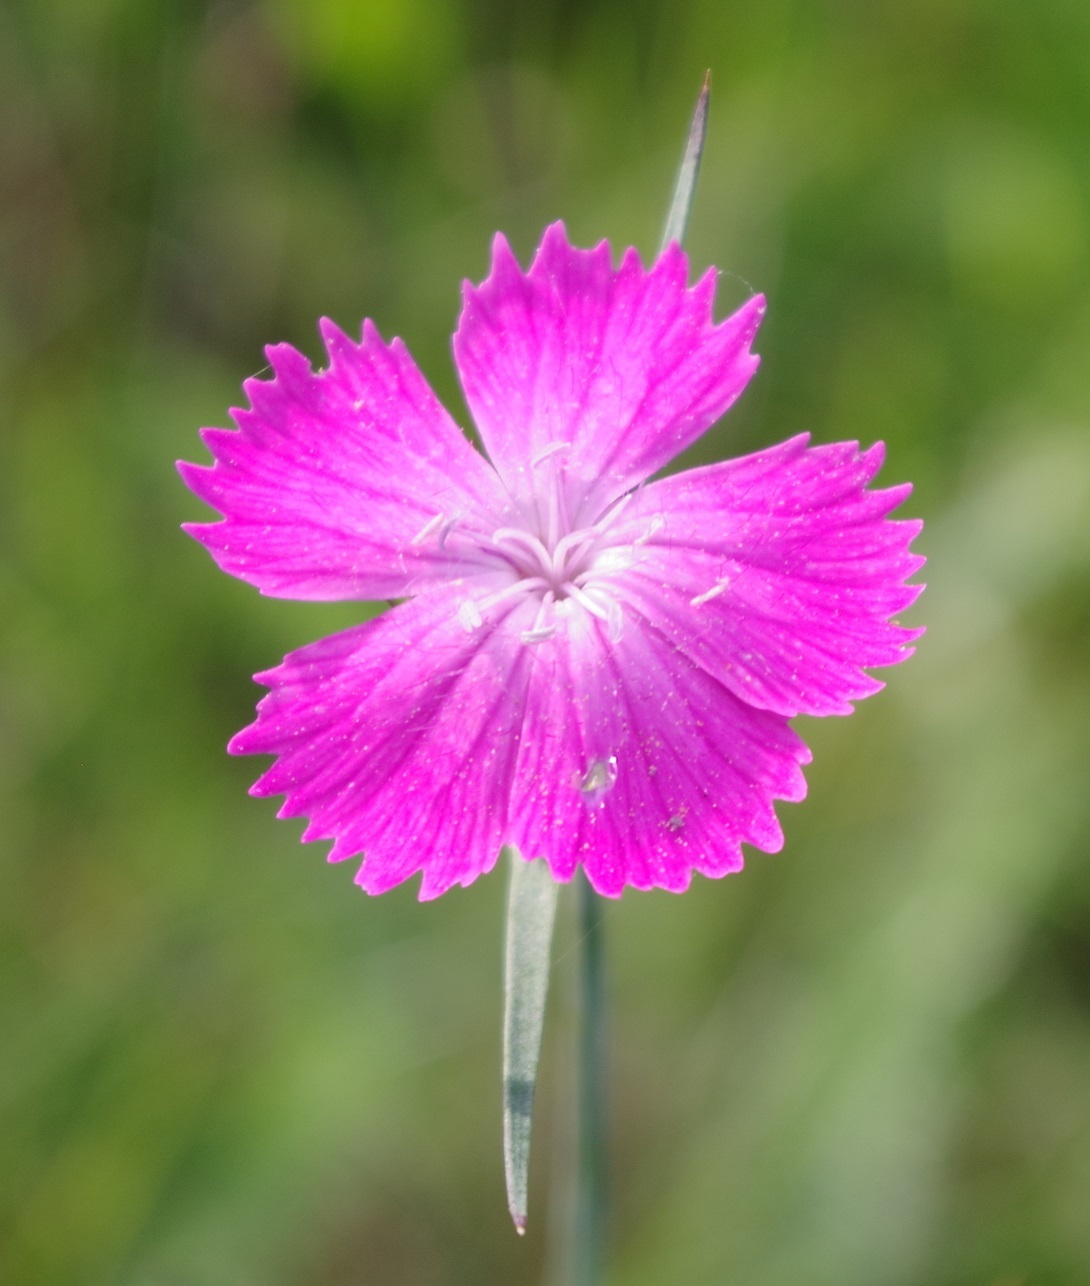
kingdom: Plantae
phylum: Tracheophyta
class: Magnoliopsida
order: Caryophyllales
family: Caryophyllaceae
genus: Dianthus
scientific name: Dianthus carthusianorum
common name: Carthusian pink
